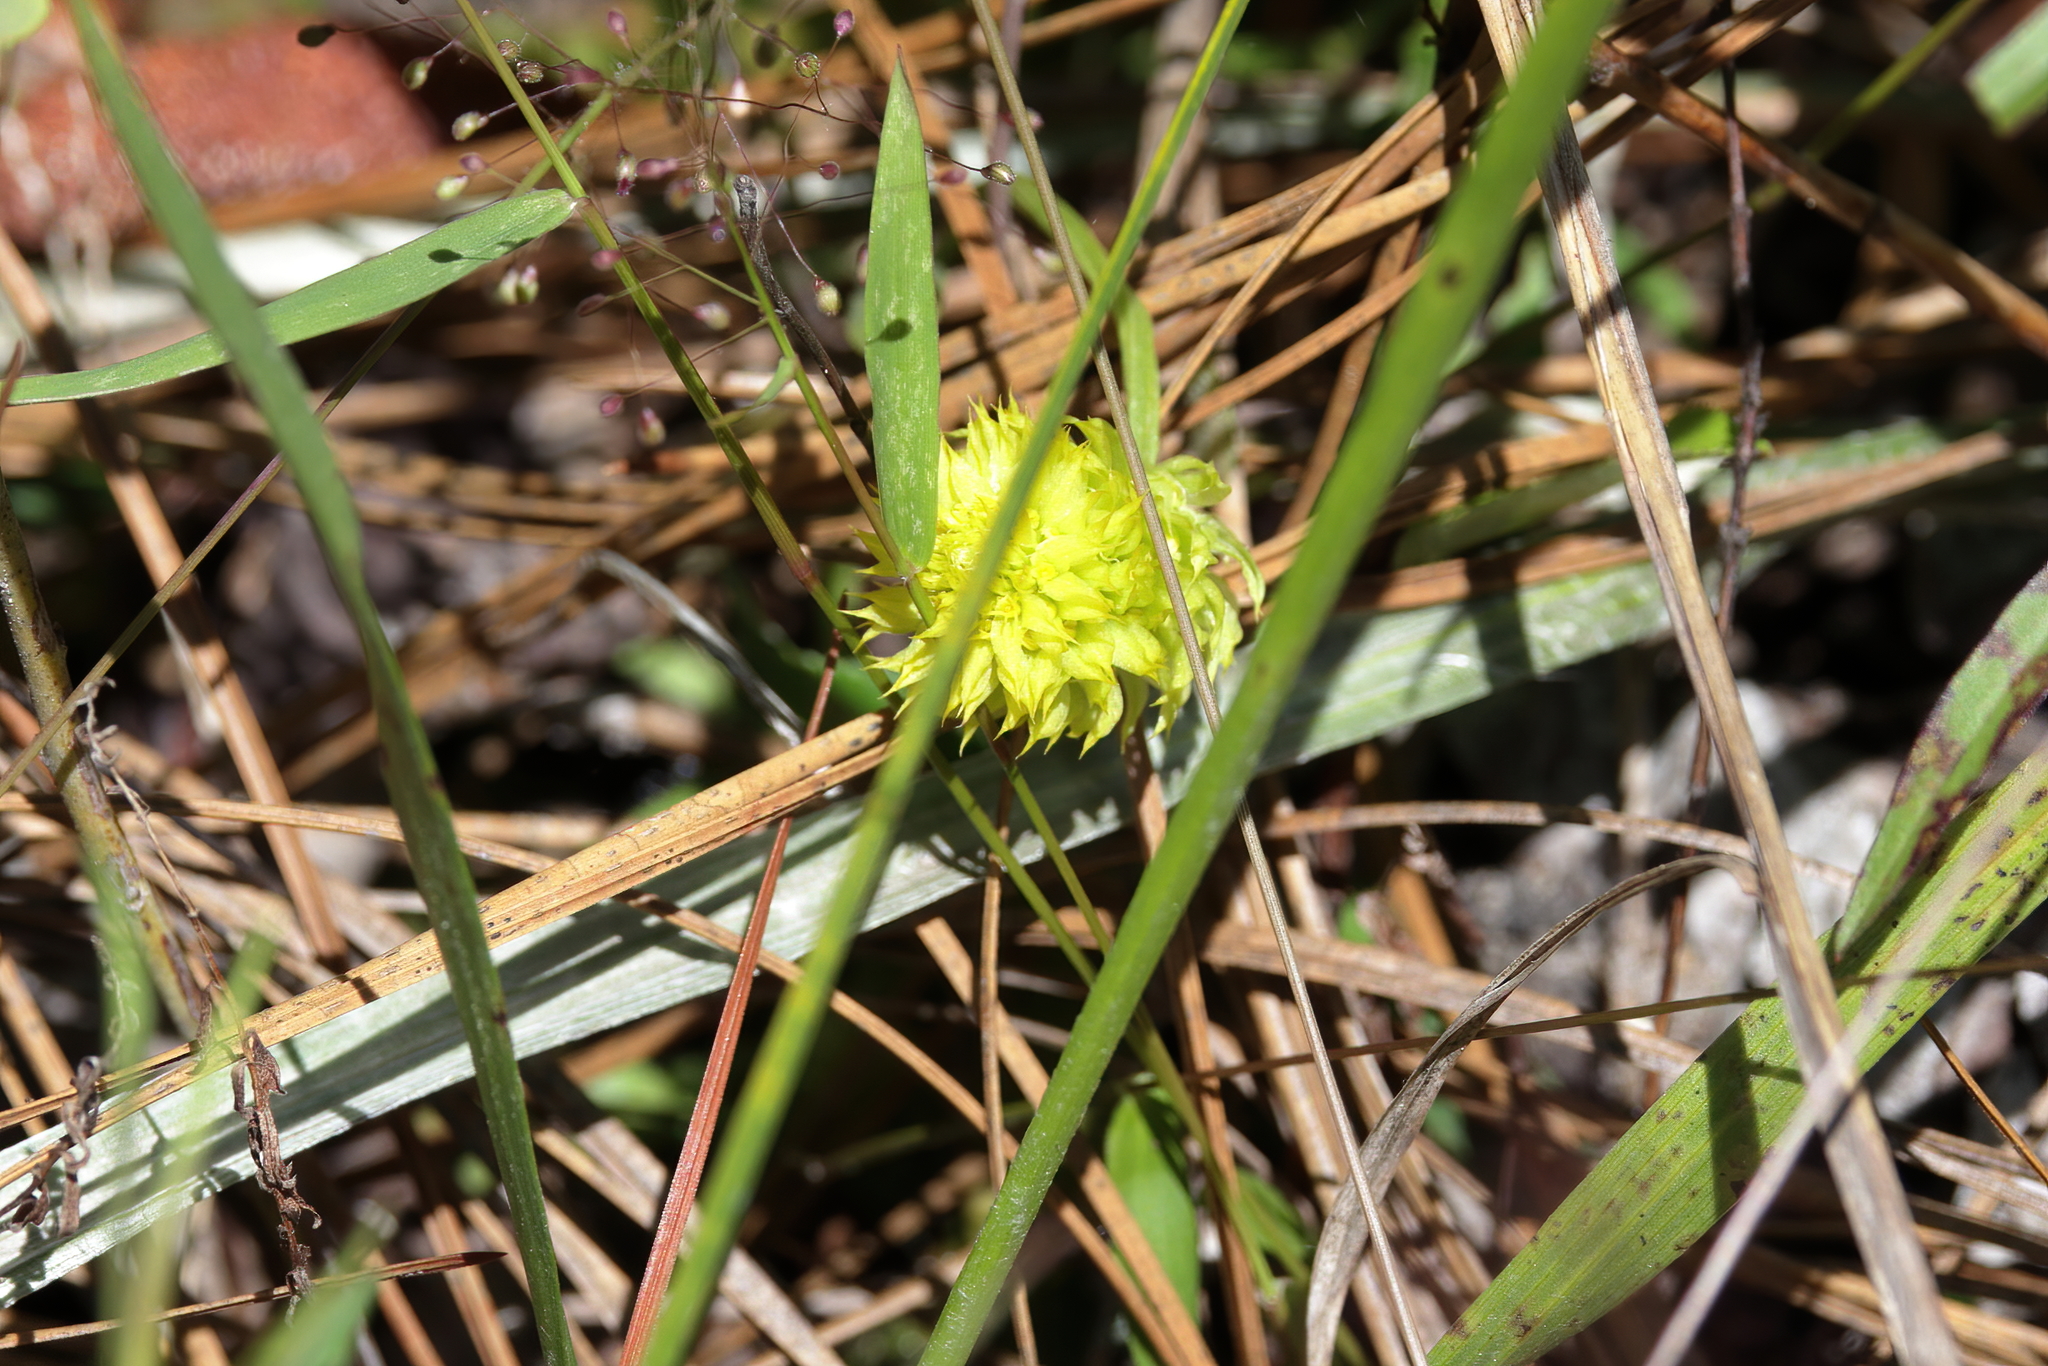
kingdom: Plantae
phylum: Tracheophyta
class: Magnoliopsida
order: Fabales
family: Polygalaceae
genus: Polygala
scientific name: Polygala nana
